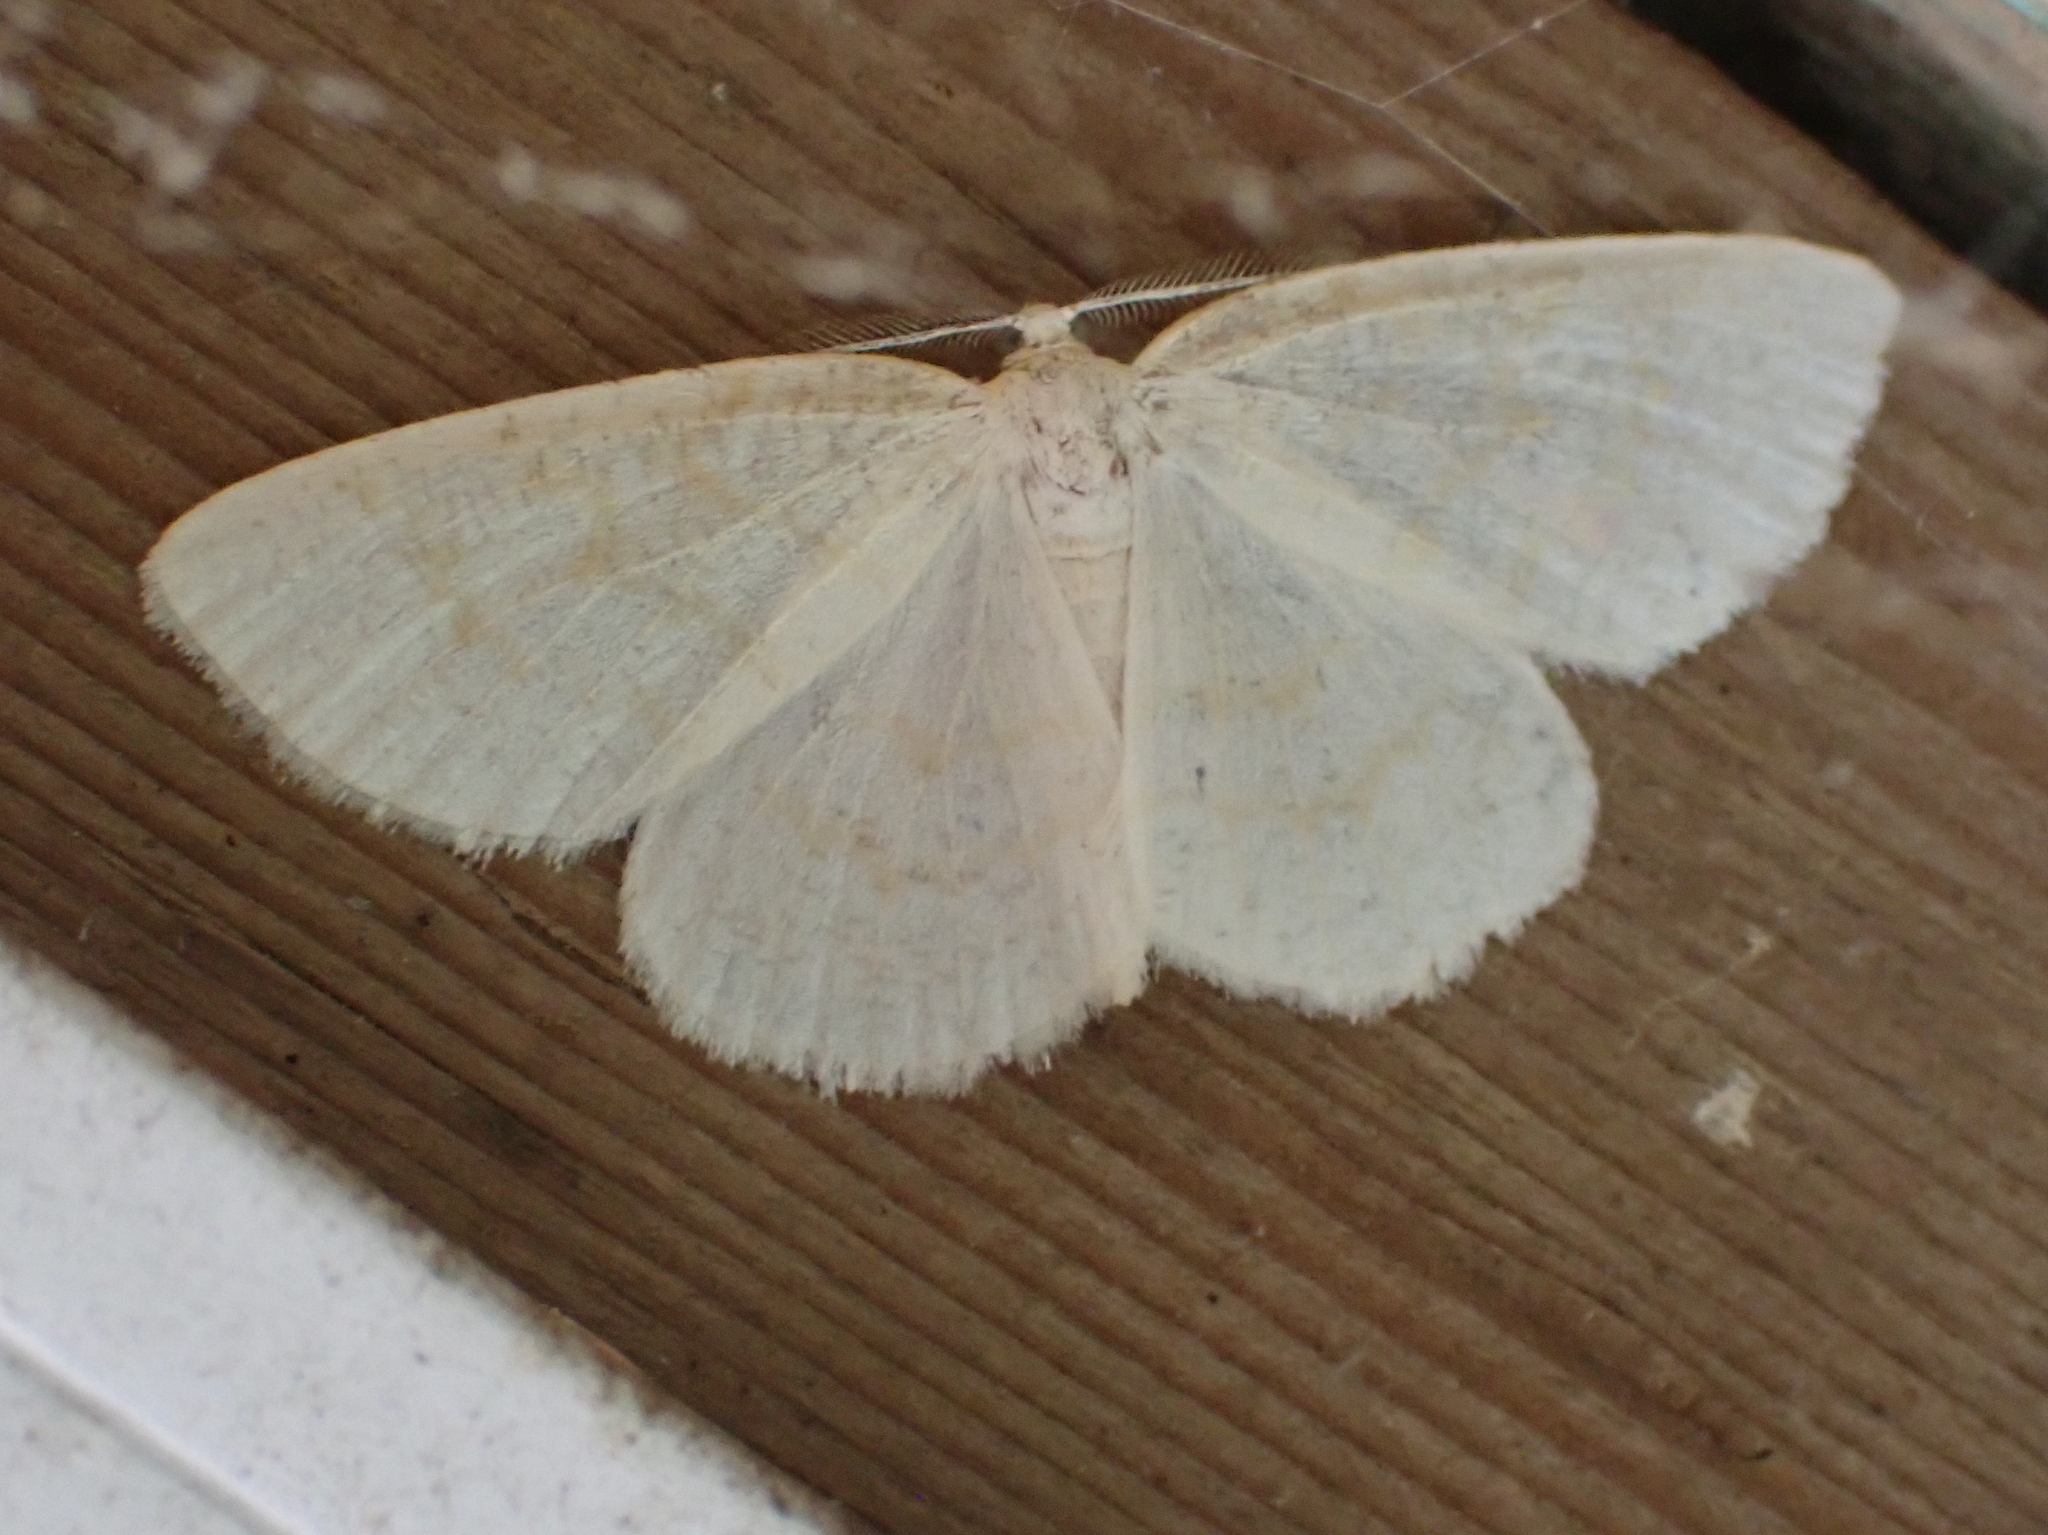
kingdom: Animalia
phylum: Arthropoda
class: Insecta
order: Lepidoptera
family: Geometridae
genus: Cabera
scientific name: Cabera erythemaria
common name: Yellow-dusted cream moth
